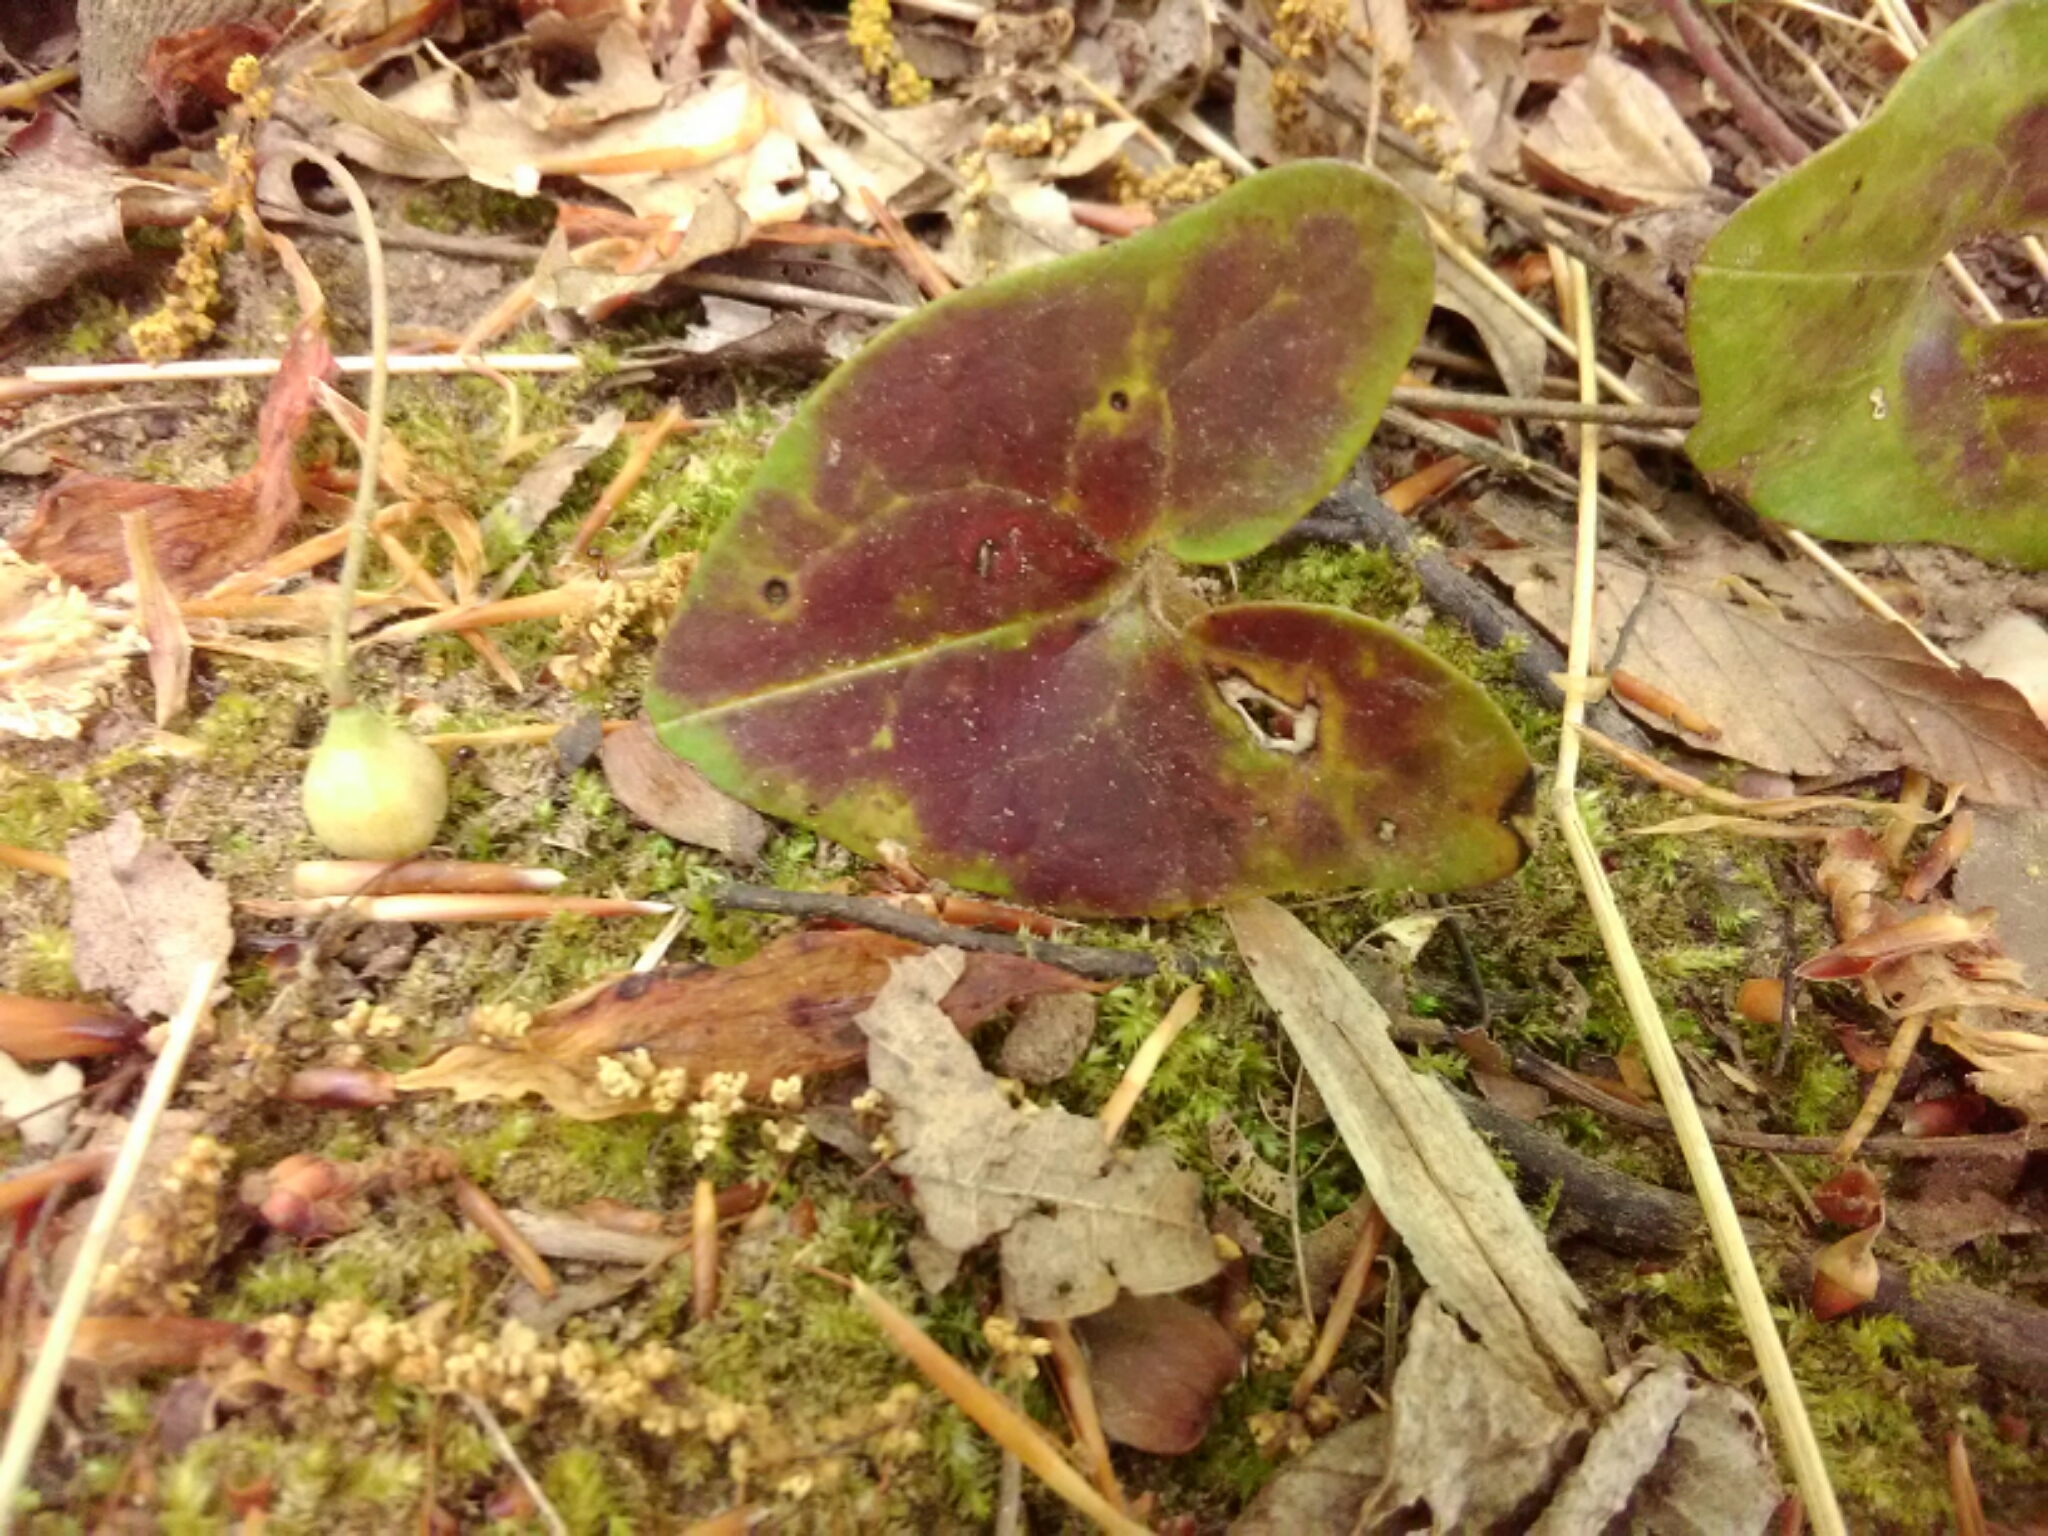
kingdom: Plantae
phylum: Tracheophyta
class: Magnoliopsida
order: Piperales
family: Aristolochiaceae
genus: Hexastylis
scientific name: Hexastylis arifolia
